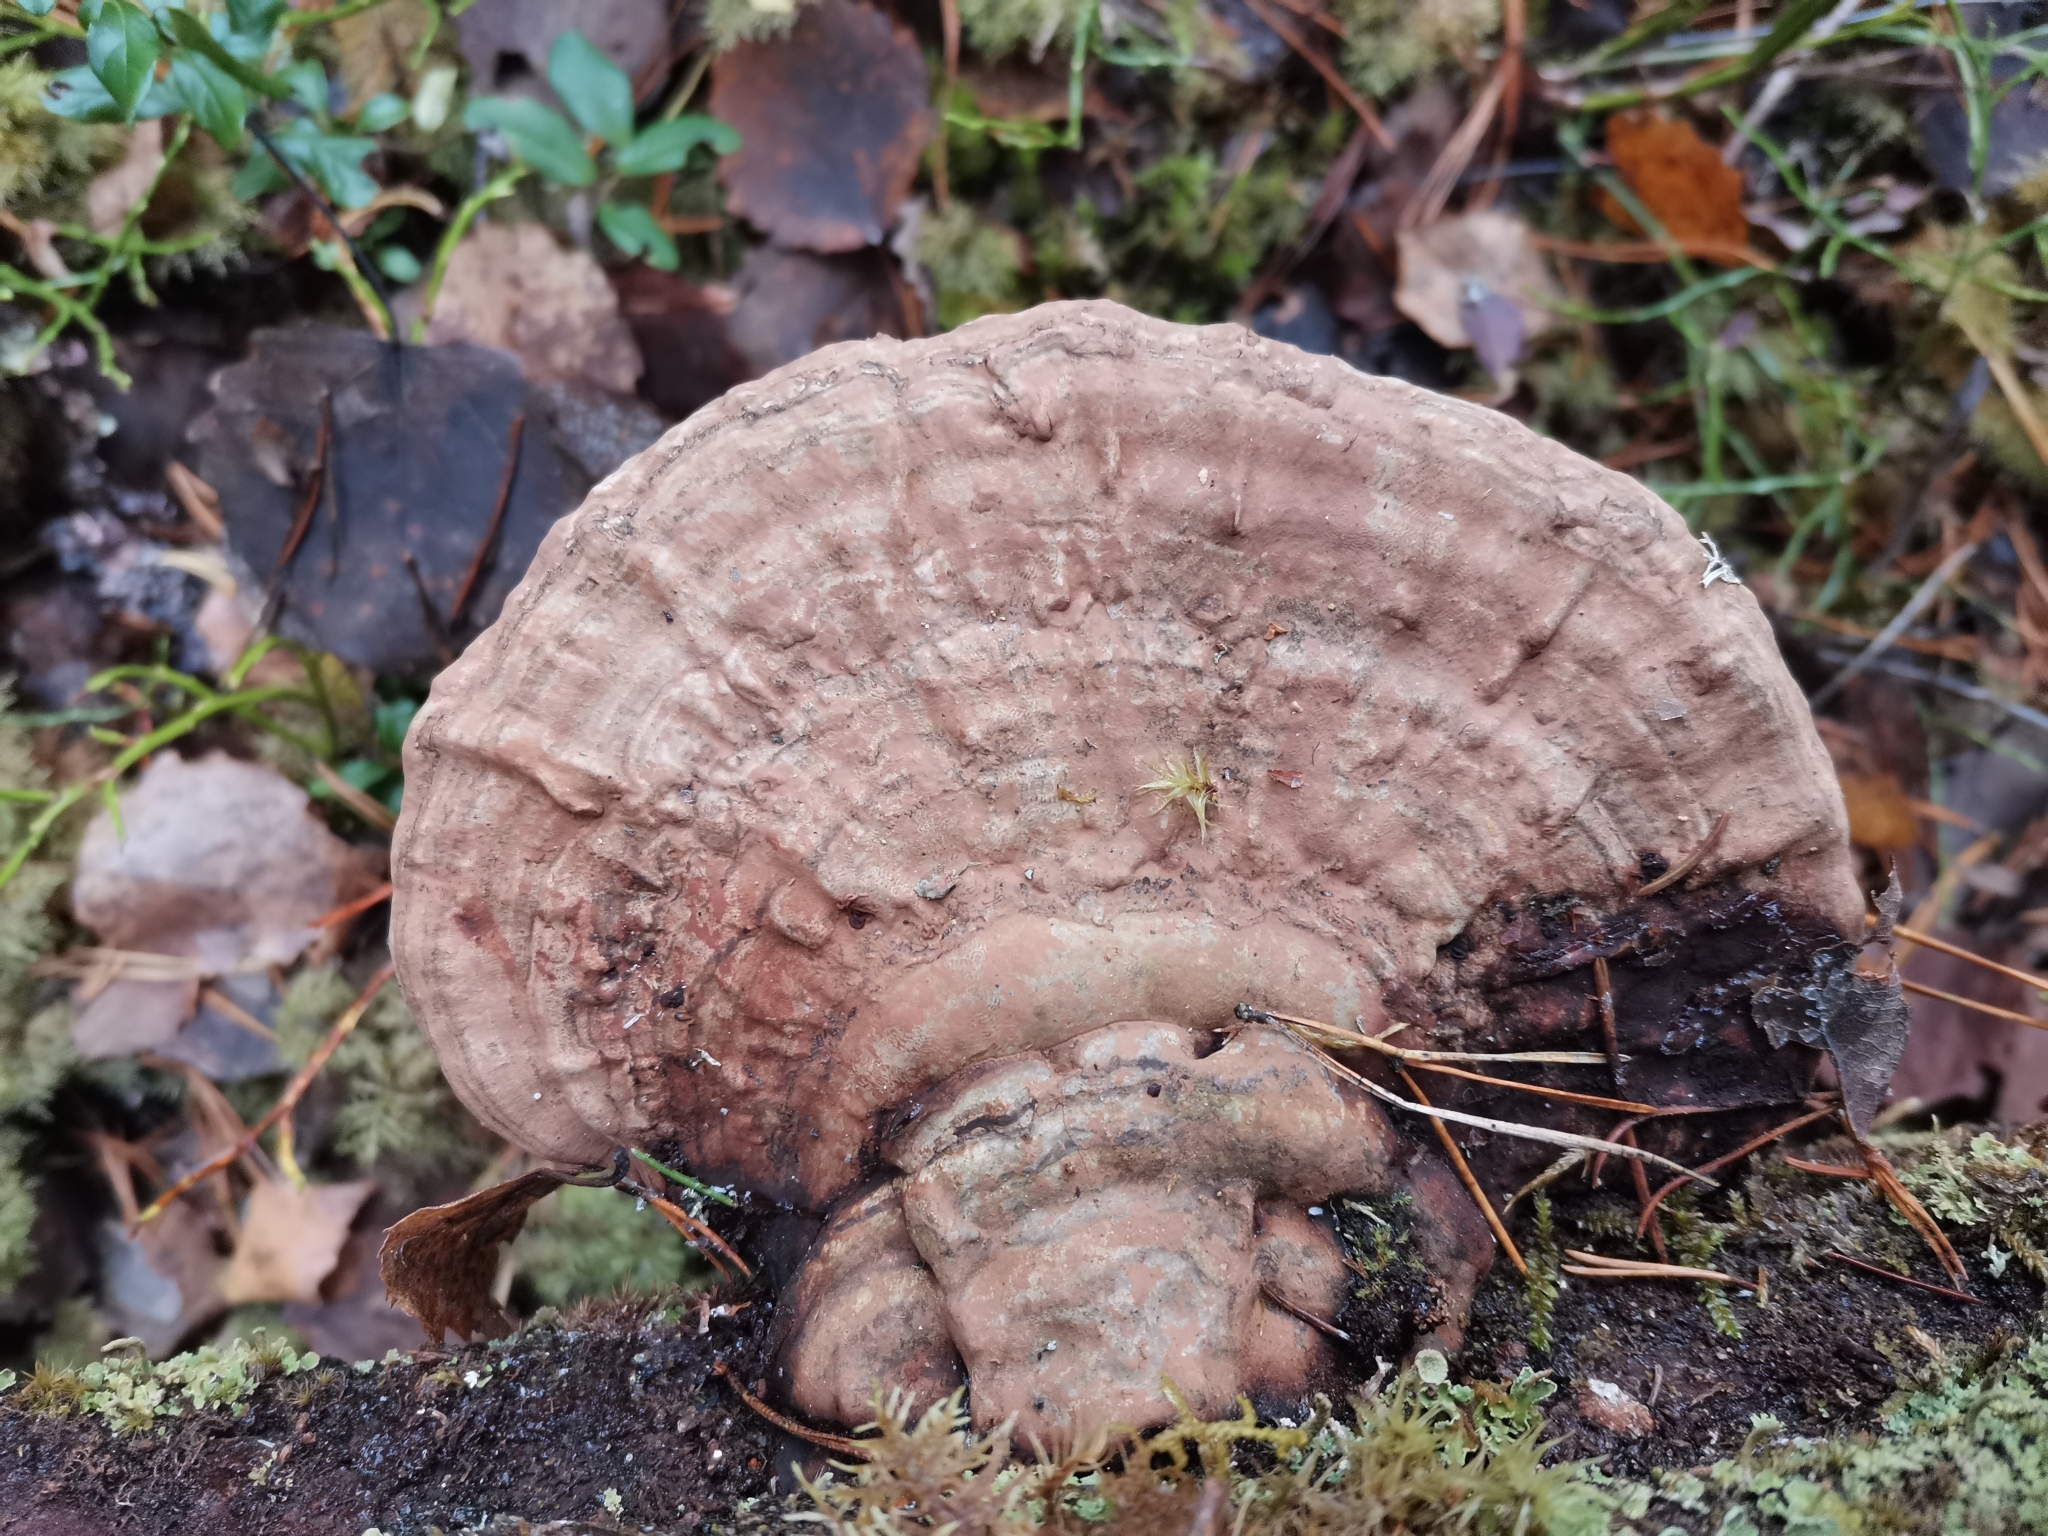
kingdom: Fungi
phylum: Basidiomycota
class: Agaricomycetes
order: Polyporales
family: Polyporaceae
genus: Ganoderma
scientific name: Ganoderma applanatum
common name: Artist's bracket
